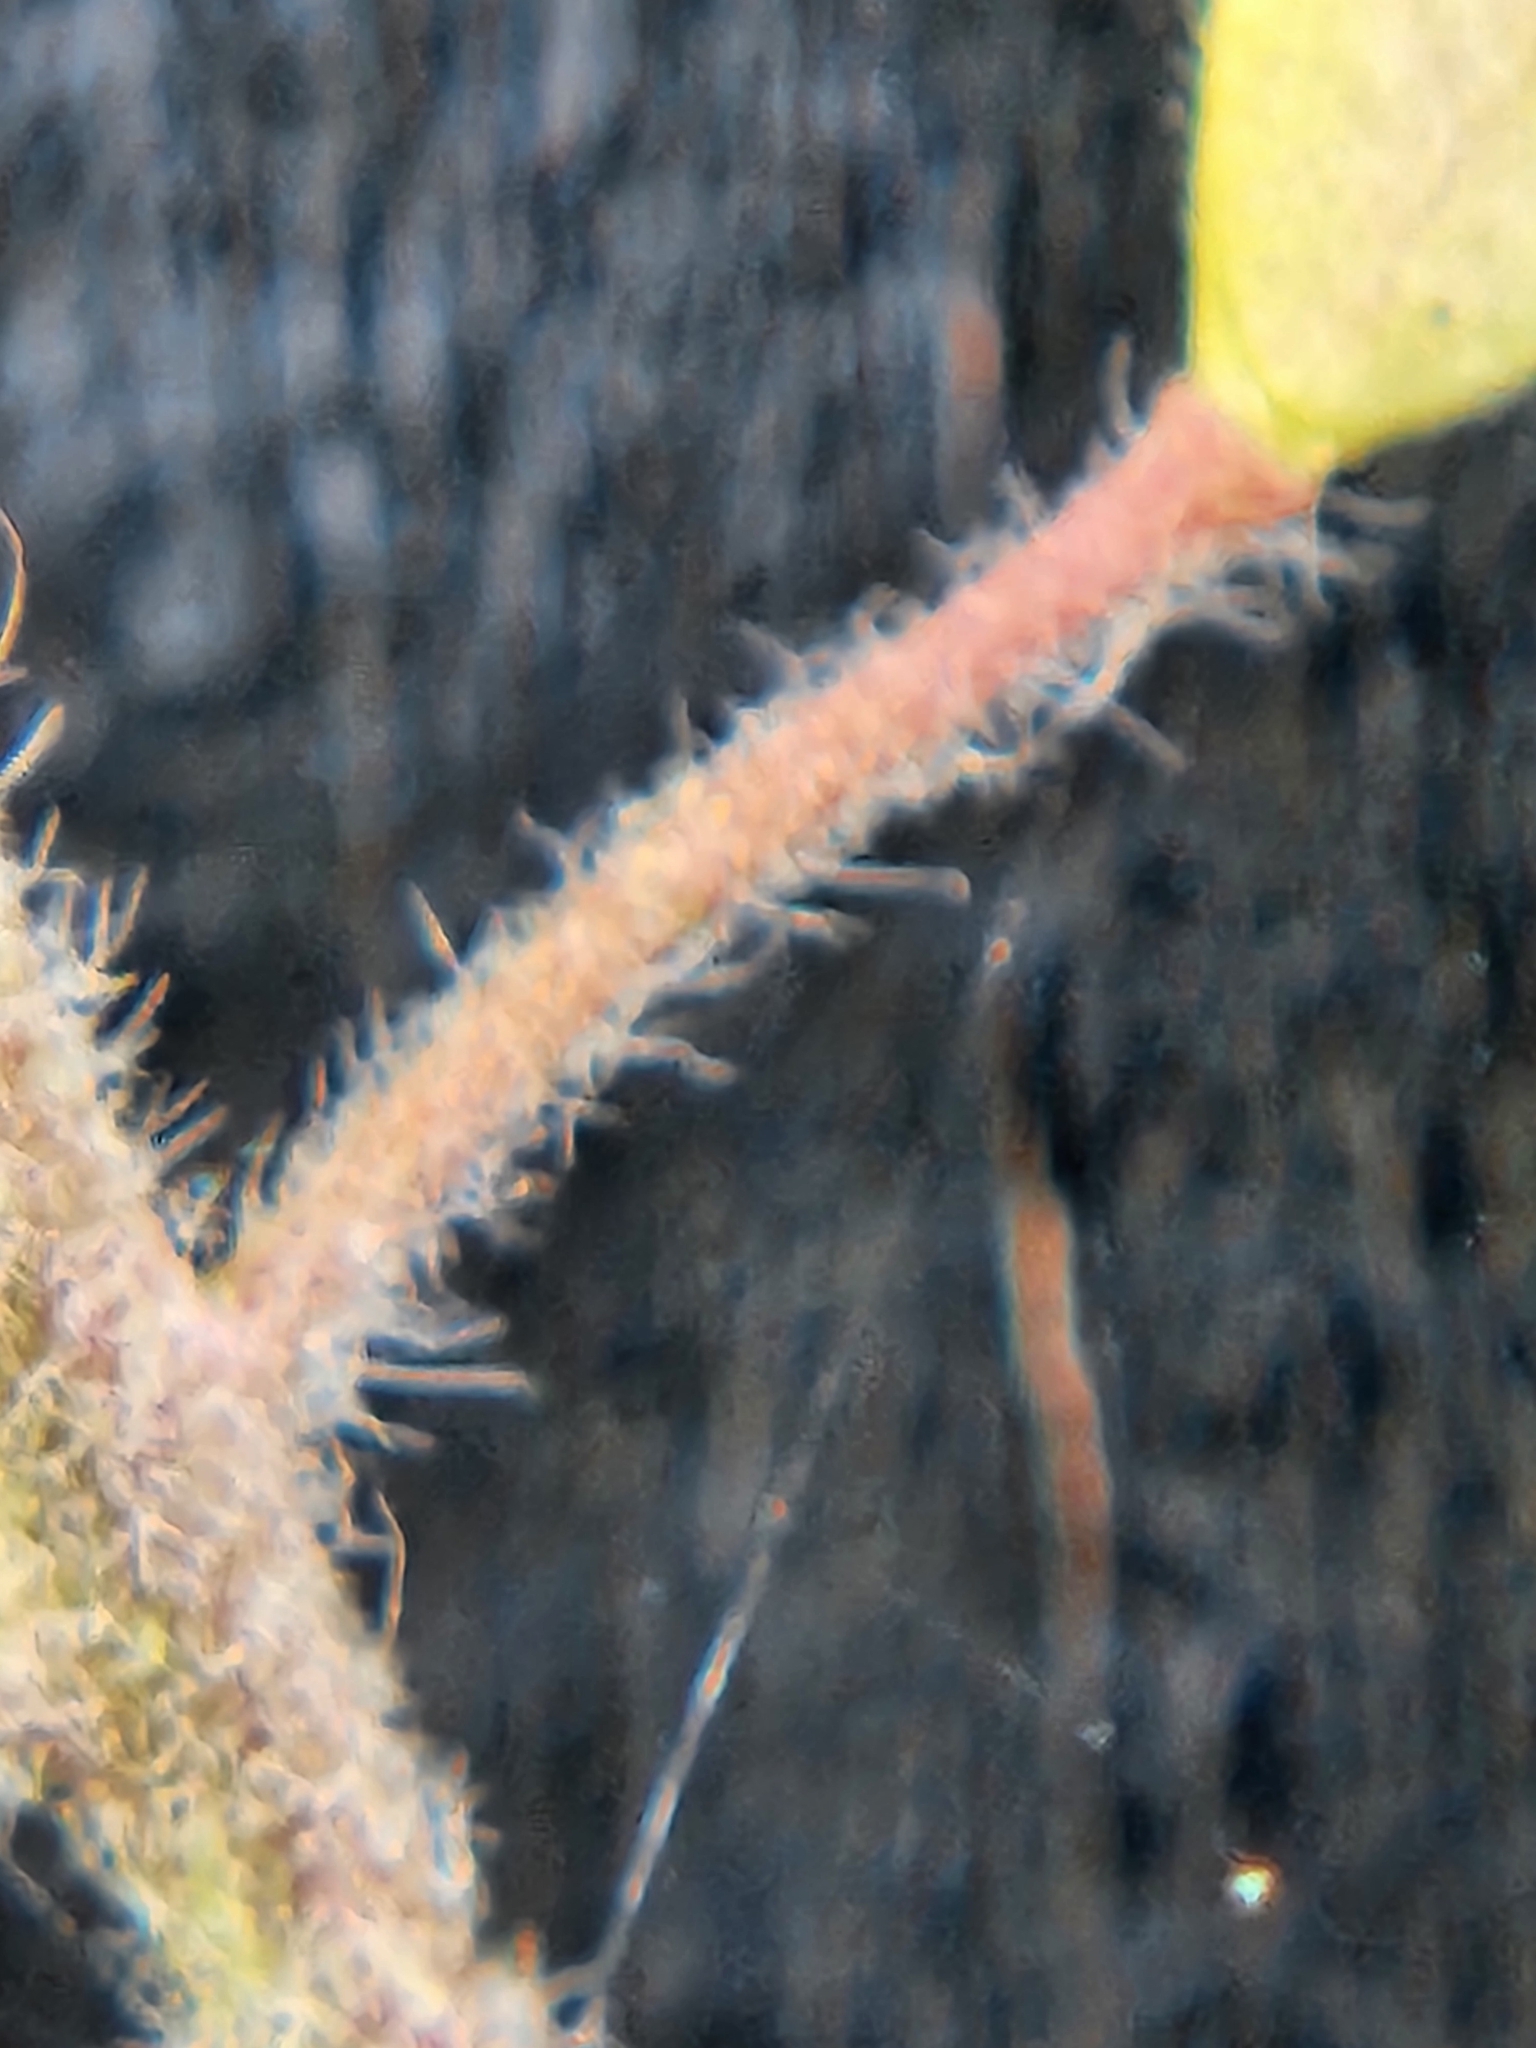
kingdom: Plantae
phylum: Tracheophyta
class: Magnoliopsida
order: Brassicales
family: Brassicaceae
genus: Tomostima
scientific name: Tomostima platycarpa
